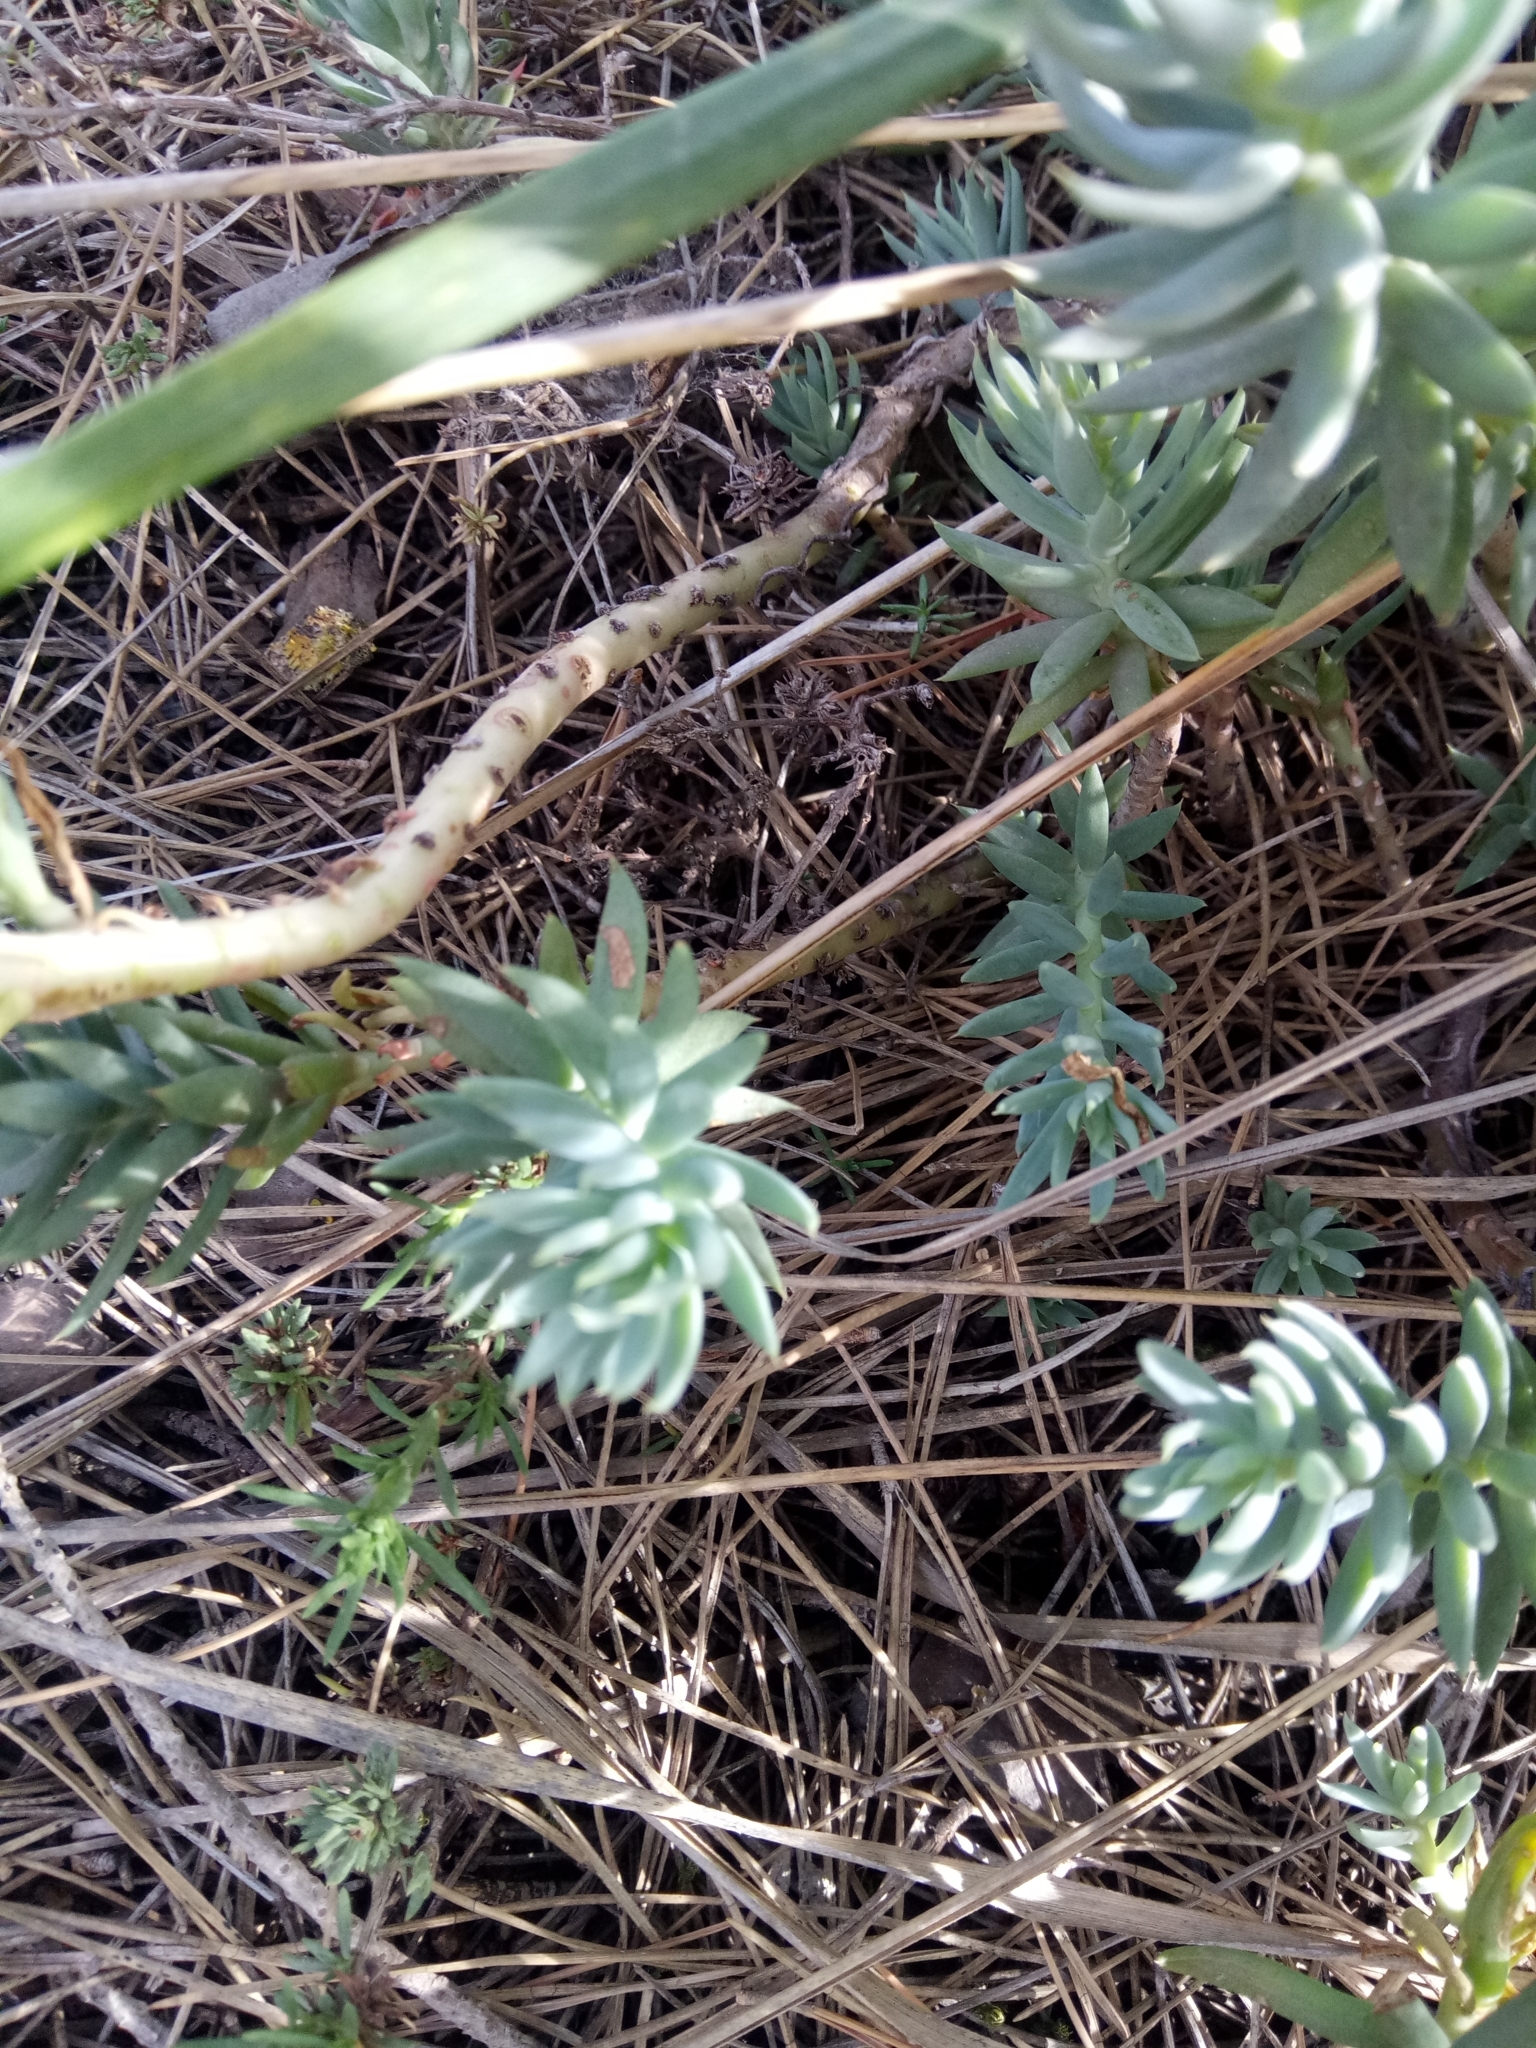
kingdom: Plantae
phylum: Tracheophyta
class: Magnoliopsida
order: Saxifragales
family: Crassulaceae
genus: Petrosedum
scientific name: Petrosedum sediforme
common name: Pale stonecrop
